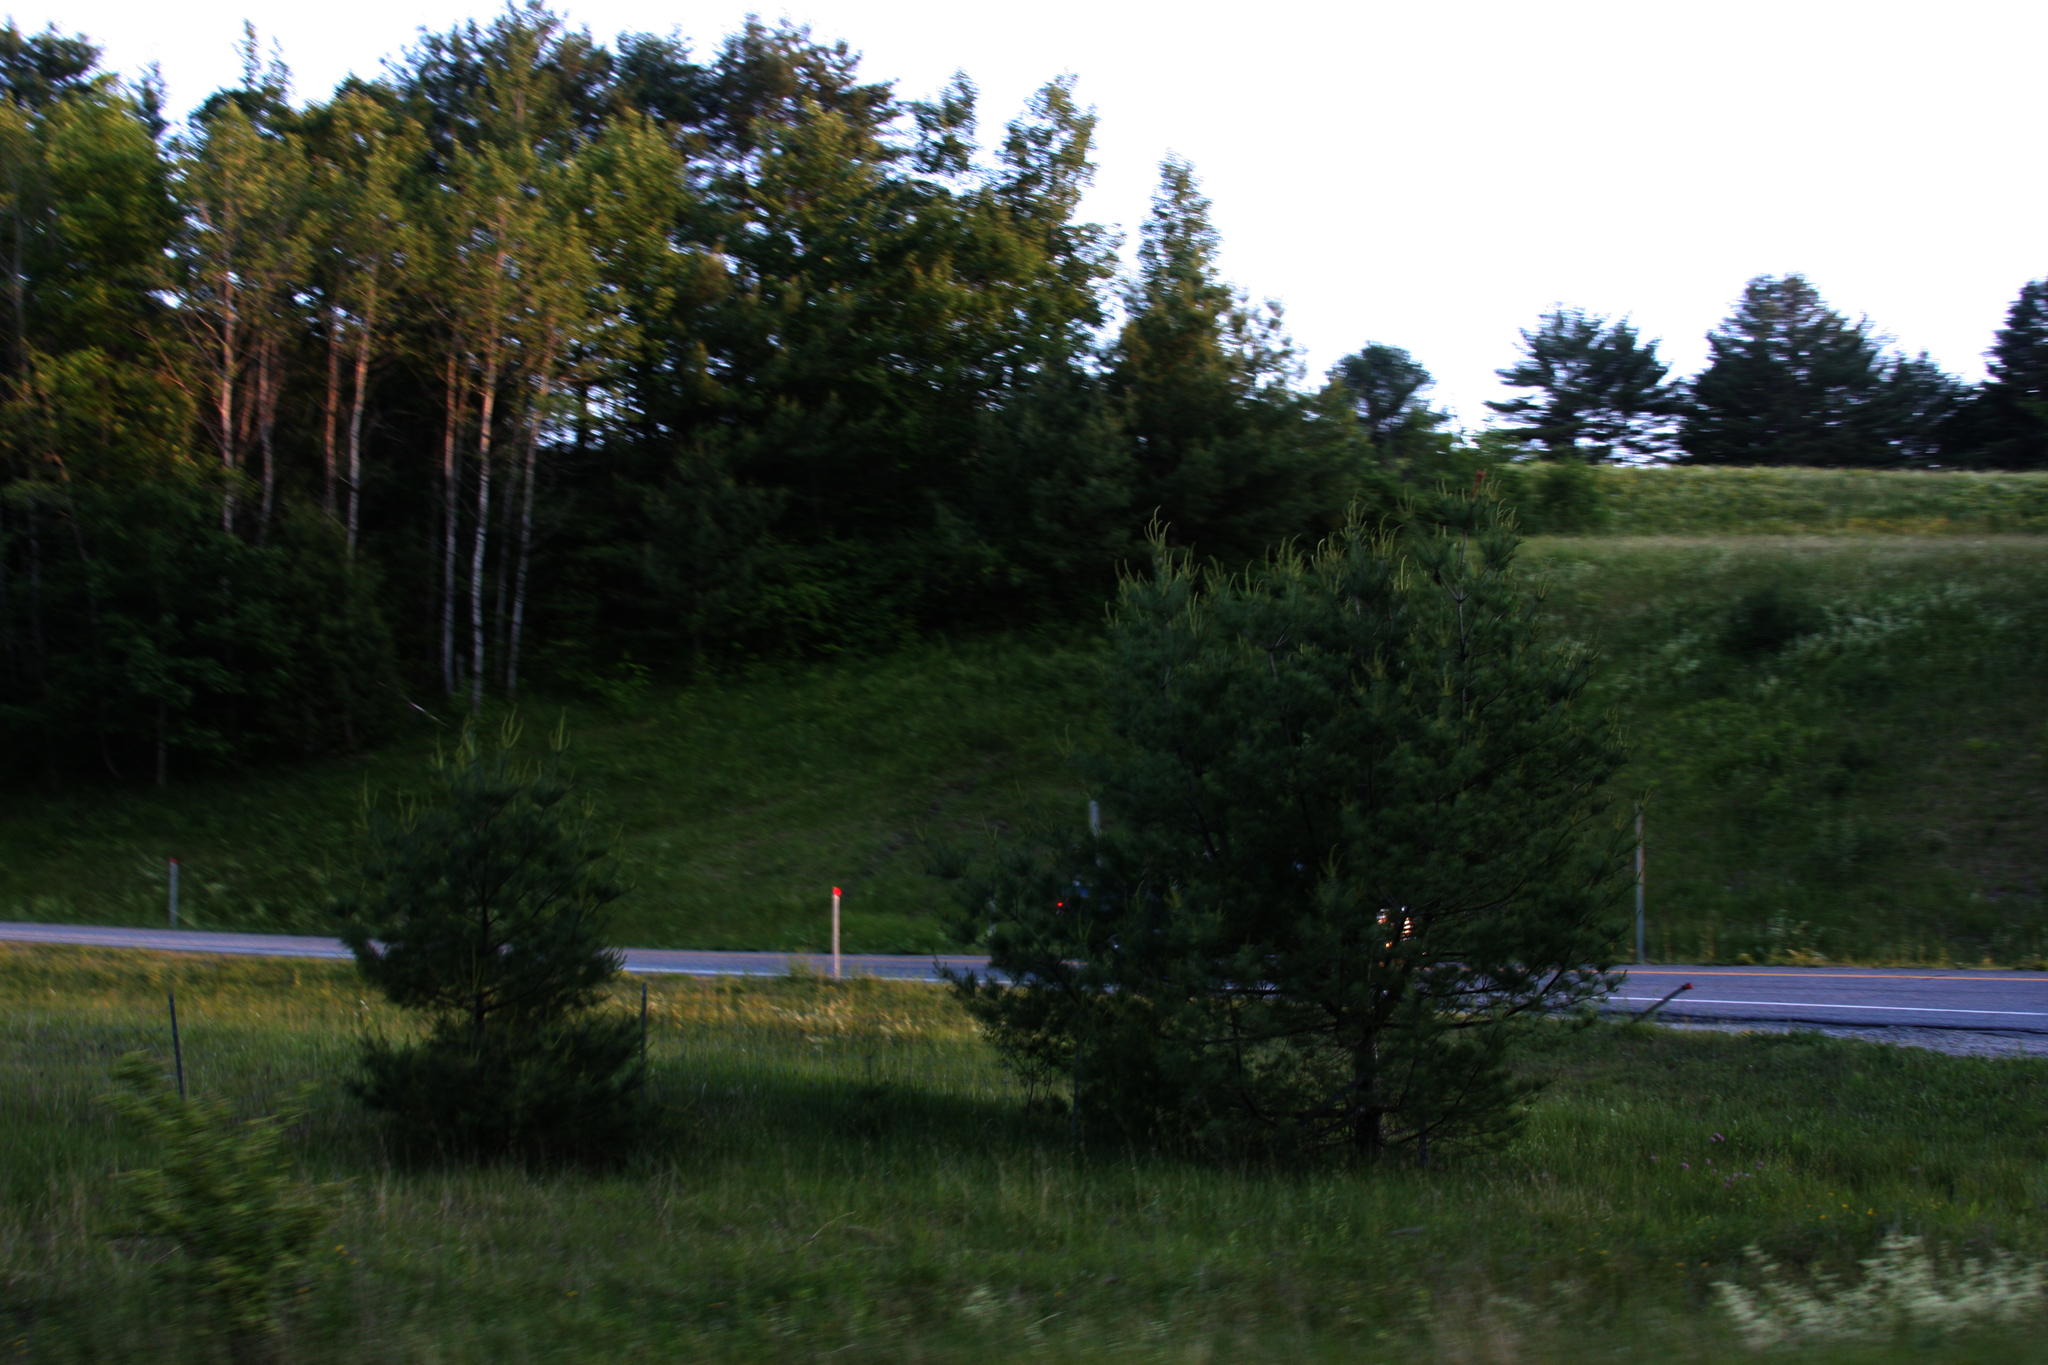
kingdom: Plantae
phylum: Tracheophyta
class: Pinopsida
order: Pinales
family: Pinaceae
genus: Pinus
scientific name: Pinus strobus
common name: Weymouth pine
